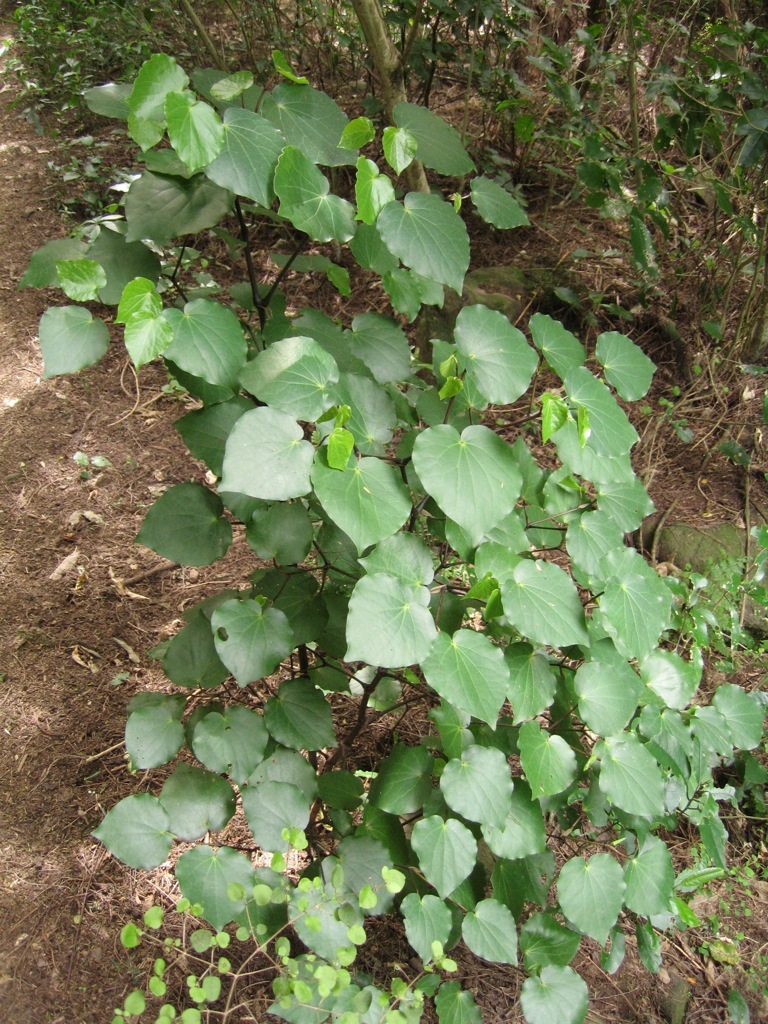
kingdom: Plantae
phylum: Tracheophyta
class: Magnoliopsida
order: Piperales
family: Piperaceae
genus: Macropiper
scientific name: Macropiper excelsum
